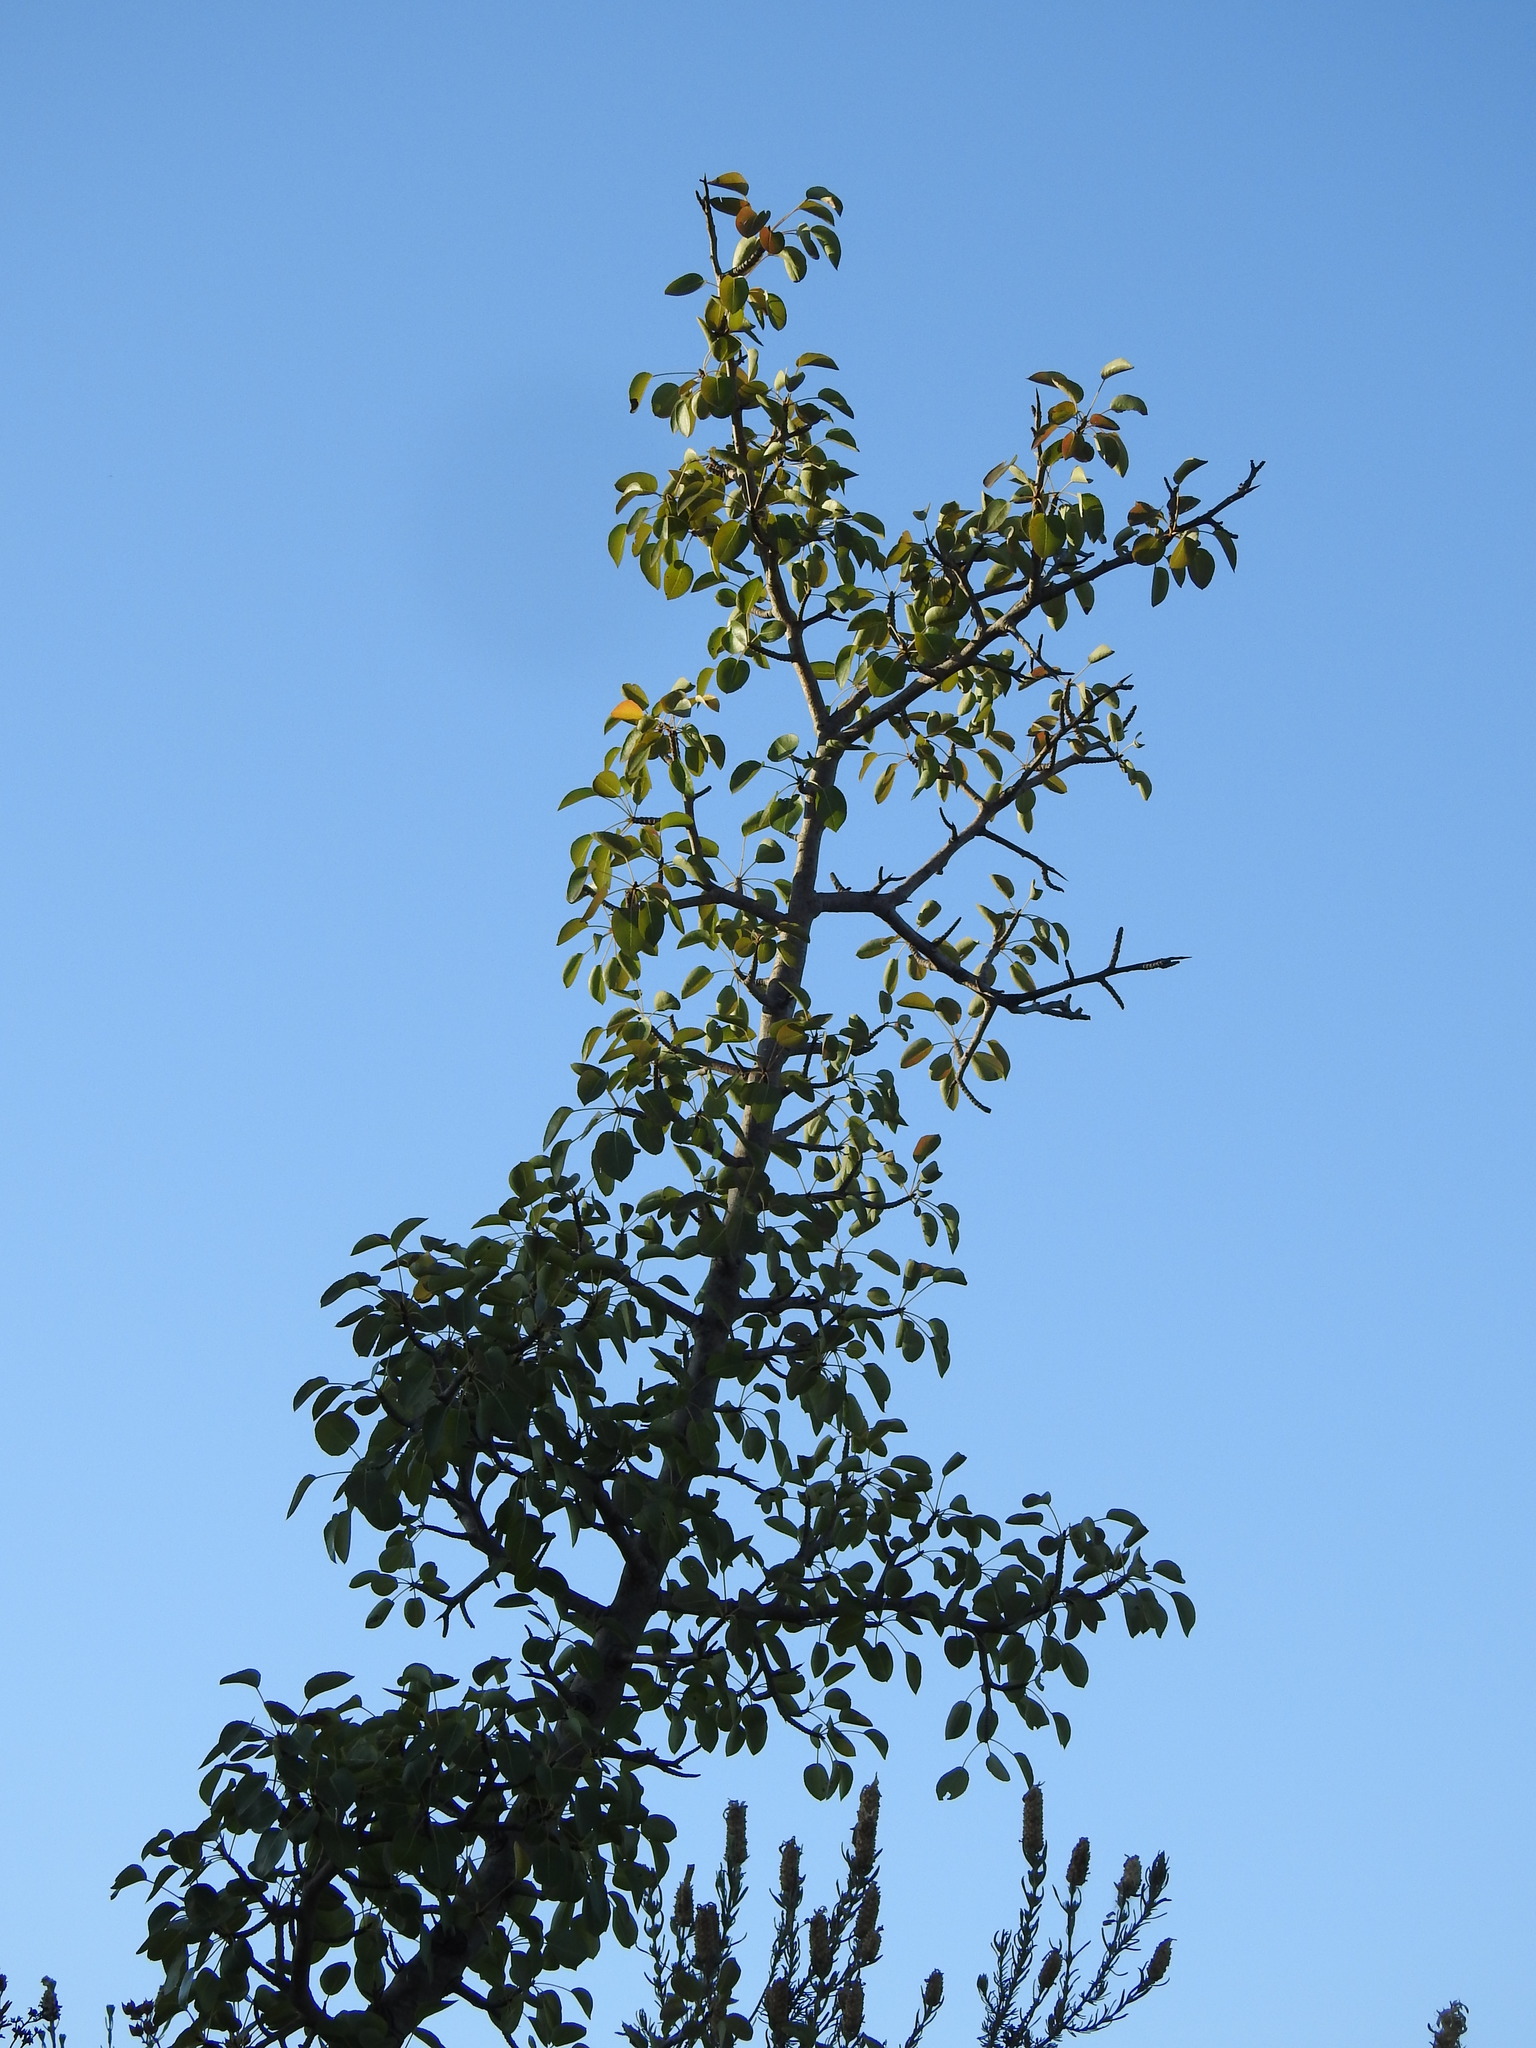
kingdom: Plantae
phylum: Tracheophyta
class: Magnoliopsida
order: Rosales
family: Rosaceae
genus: Pyrus
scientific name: Pyrus bourgaeana
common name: Iberian pear
